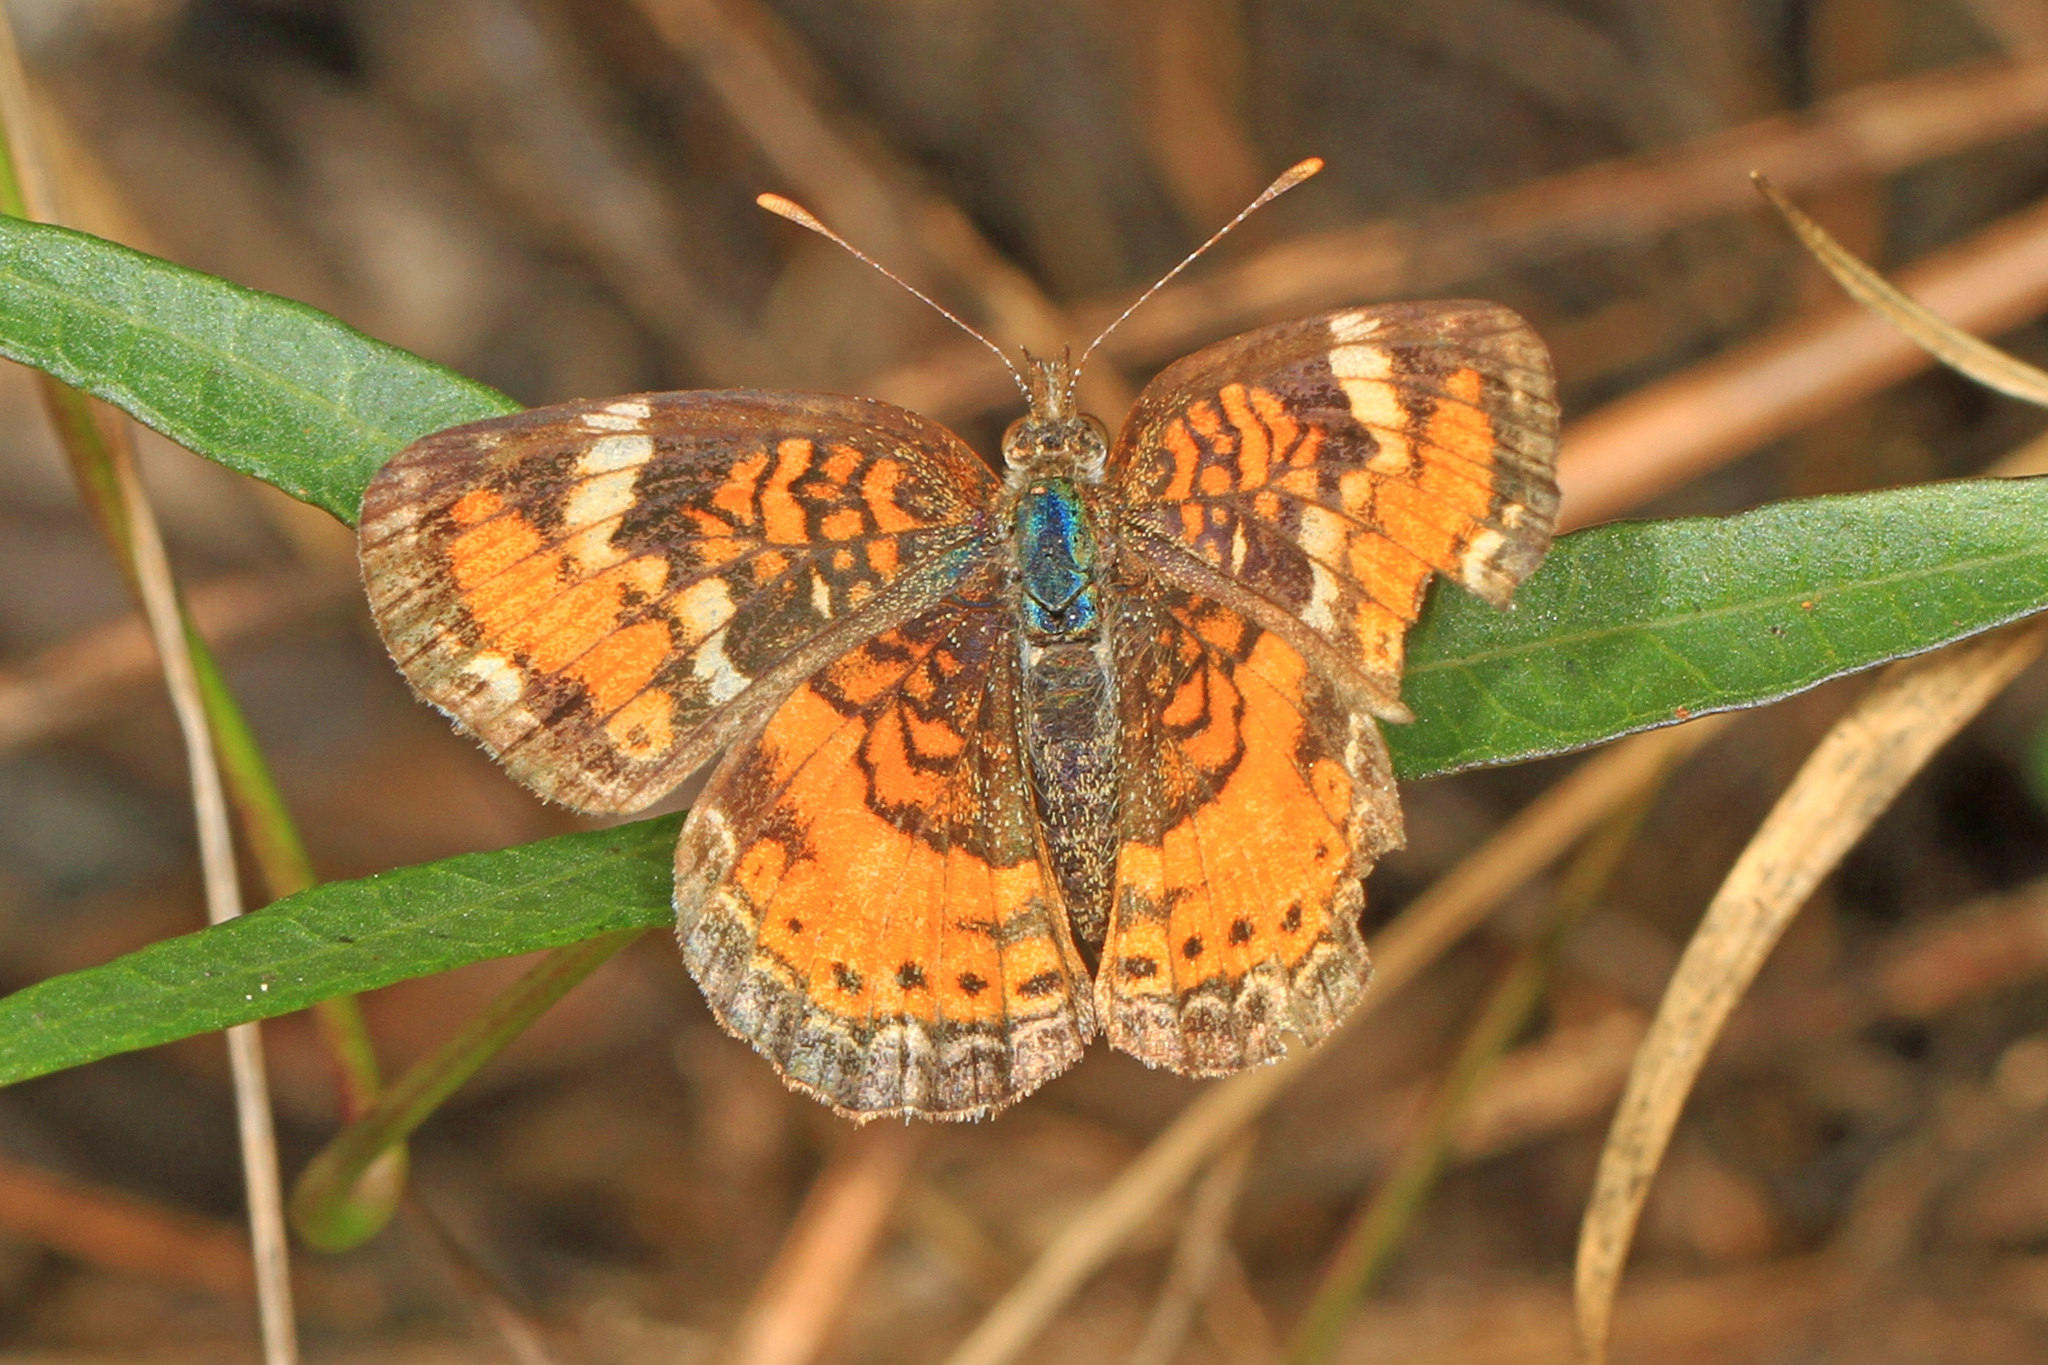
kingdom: Animalia
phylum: Arthropoda
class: Insecta
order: Lepidoptera
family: Nymphalidae
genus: Phyciodes
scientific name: Phyciodes phaon
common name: Phaon crescent
